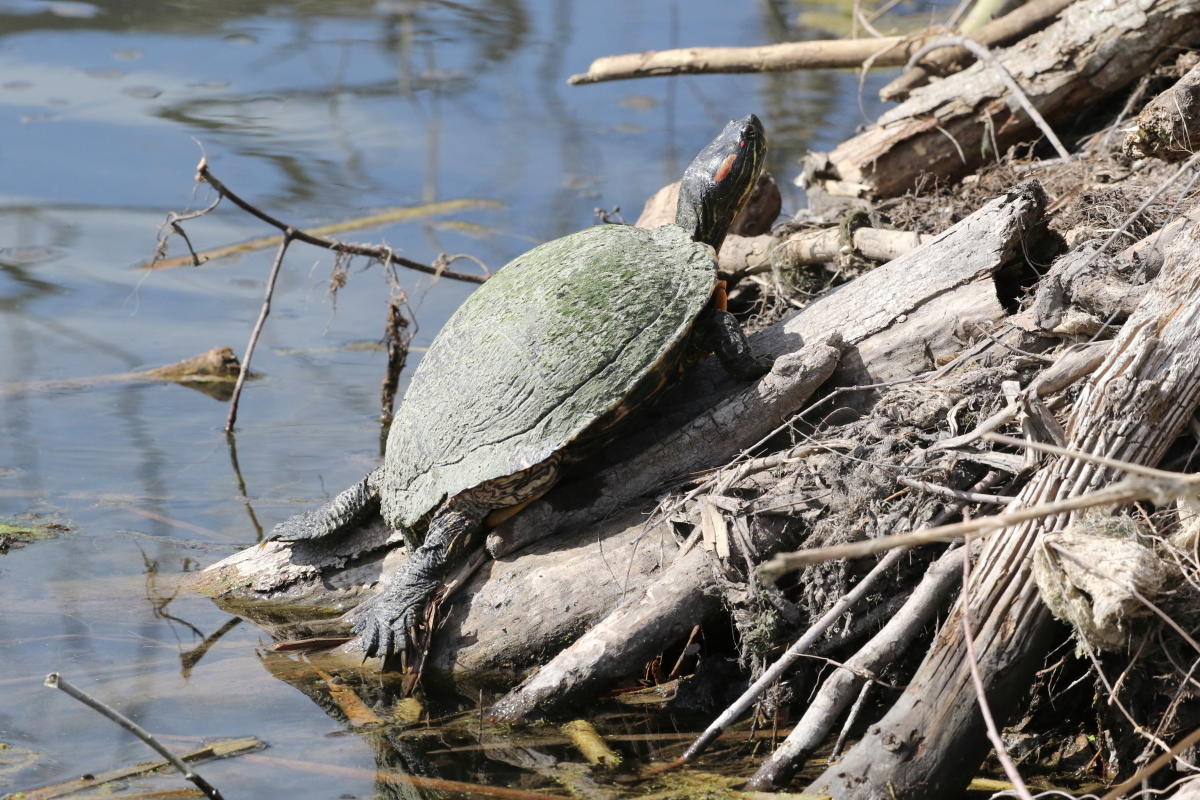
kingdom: Animalia
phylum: Chordata
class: Testudines
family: Emydidae
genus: Trachemys
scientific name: Trachemys scripta
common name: Slider
